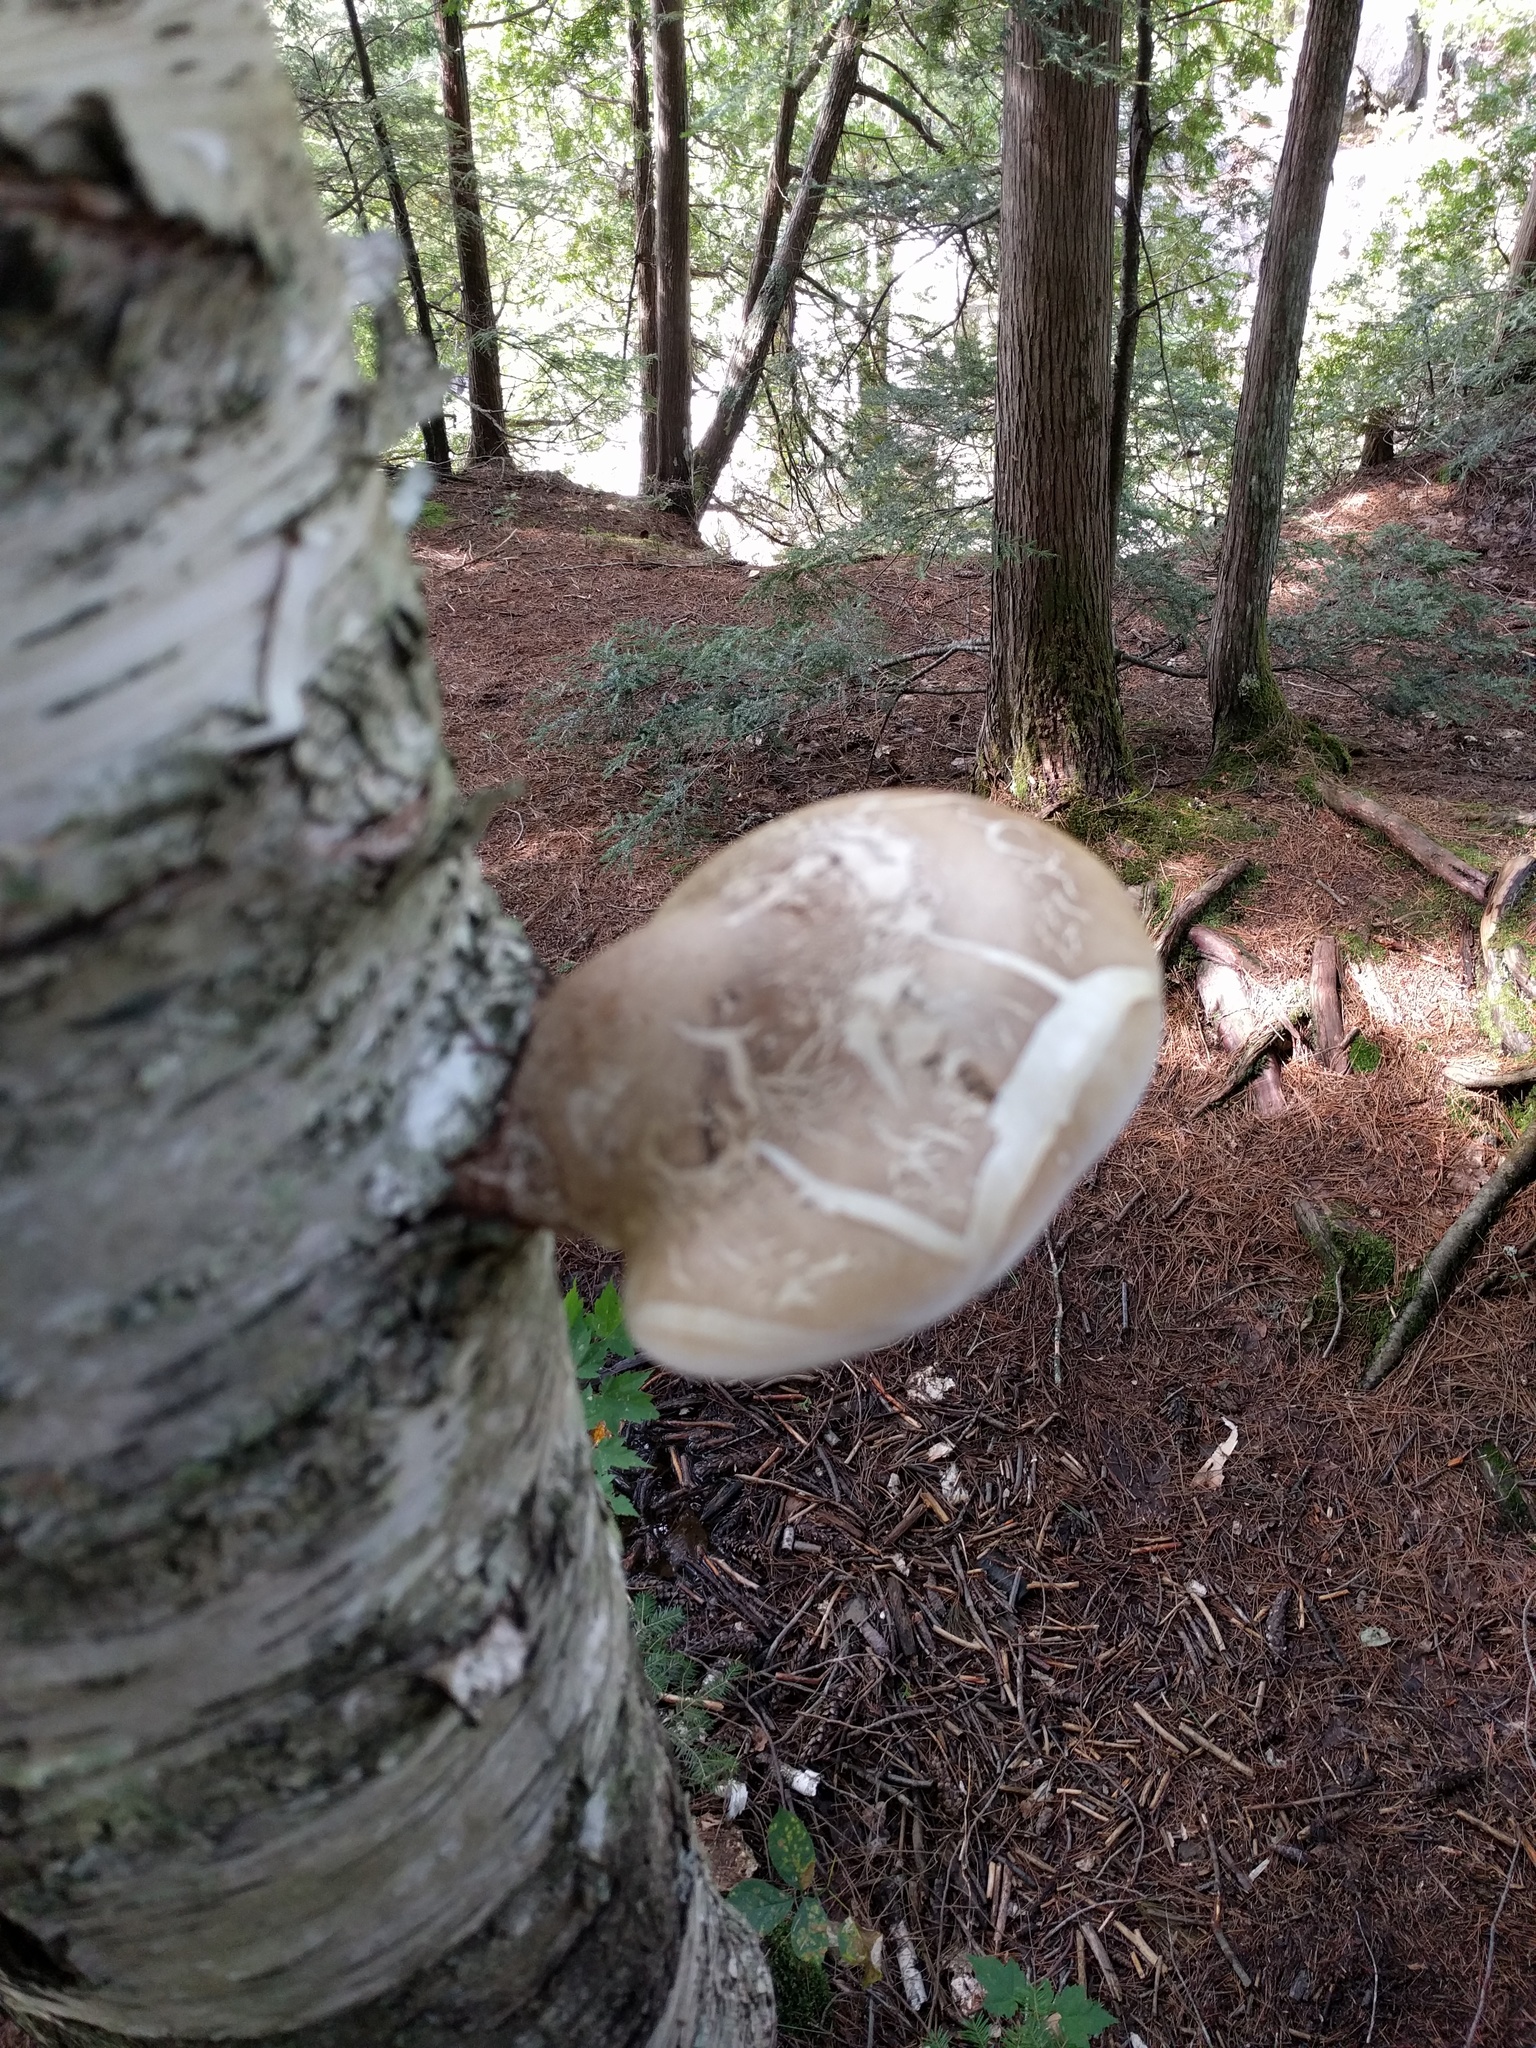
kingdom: Fungi
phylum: Basidiomycota
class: Agaricomycetes
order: Polyporales
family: Fomitopsidaceae
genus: Fomitopsis
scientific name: Fomitopsis betulina
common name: Birch polypore
